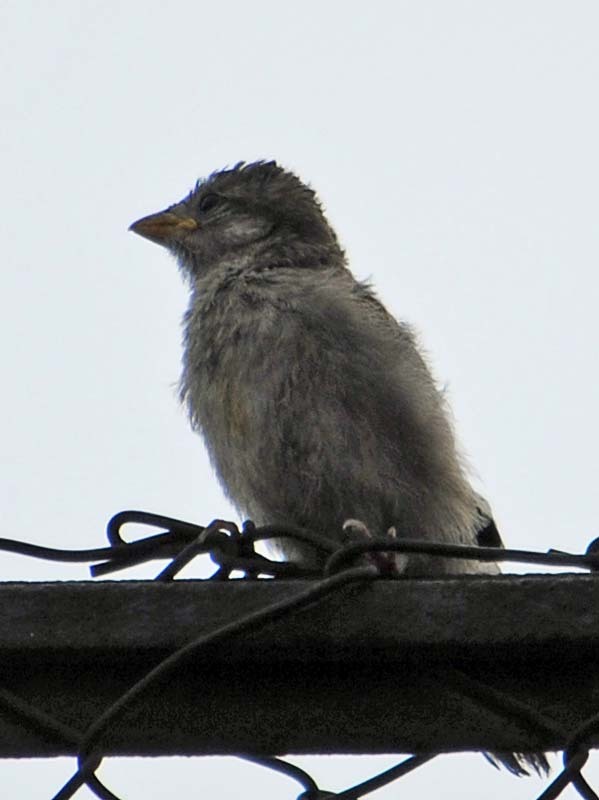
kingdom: Animalia
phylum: Chordata
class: Aves
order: Passeriformes
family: Passeridae
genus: Passer
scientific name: Passer domesticus
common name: House sparrow
